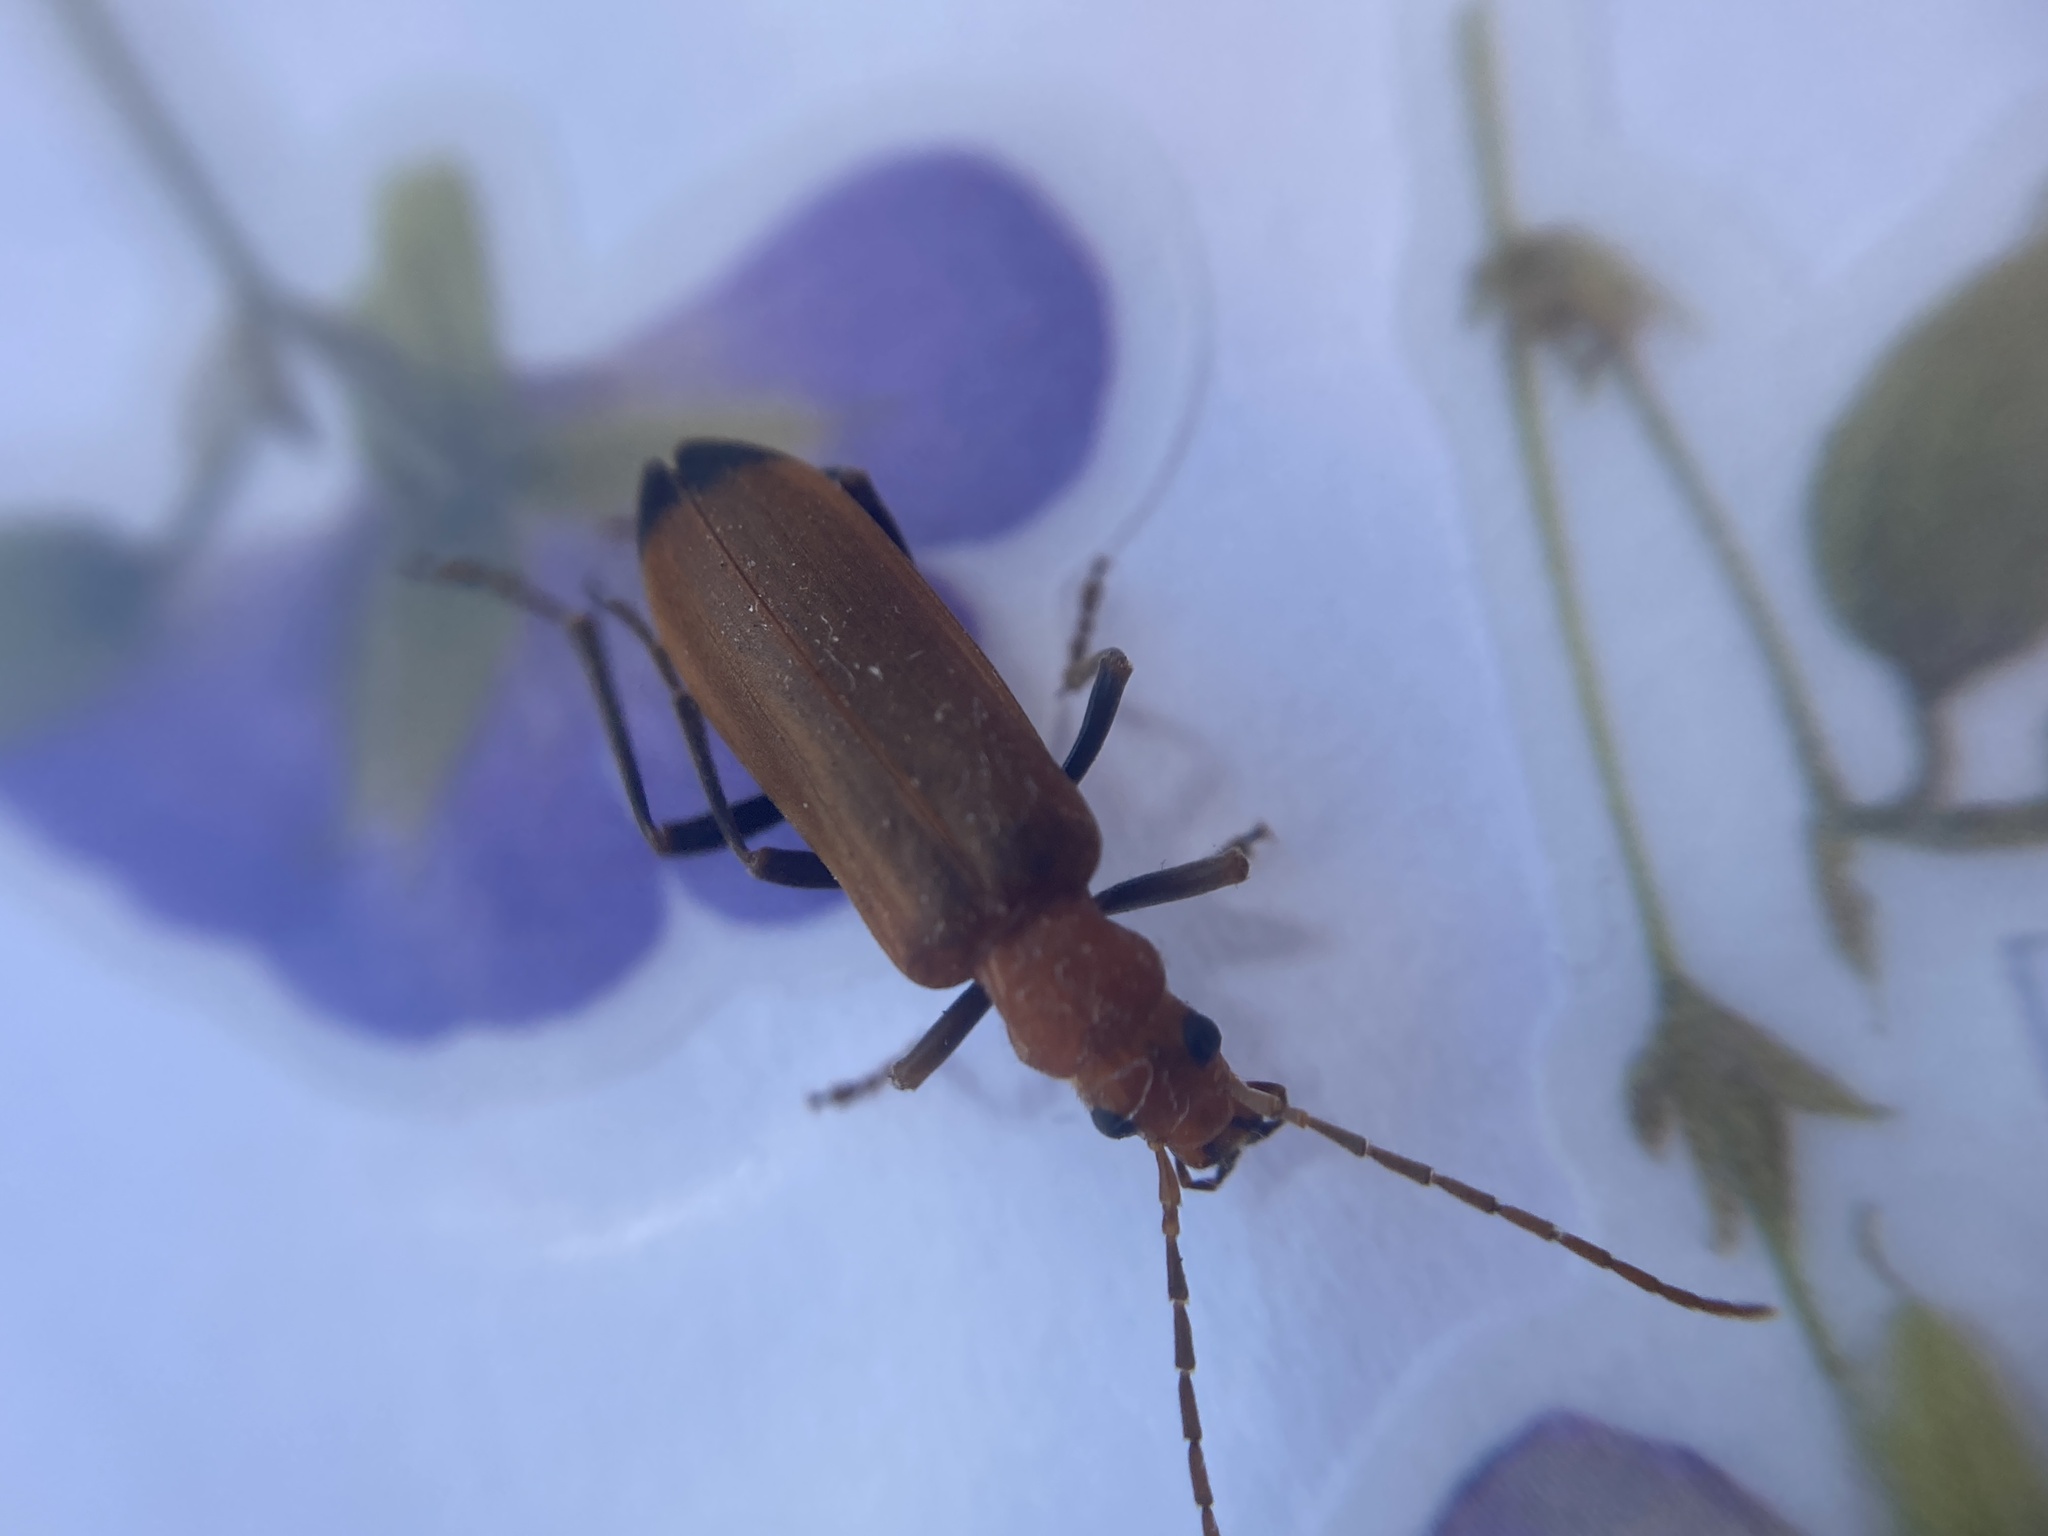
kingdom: Animalia
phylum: Arthropoda
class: Insecta
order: Coleoptera
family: Oedemeridae
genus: Nacerdes
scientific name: Nacerdes melanura
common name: Wharf borer
